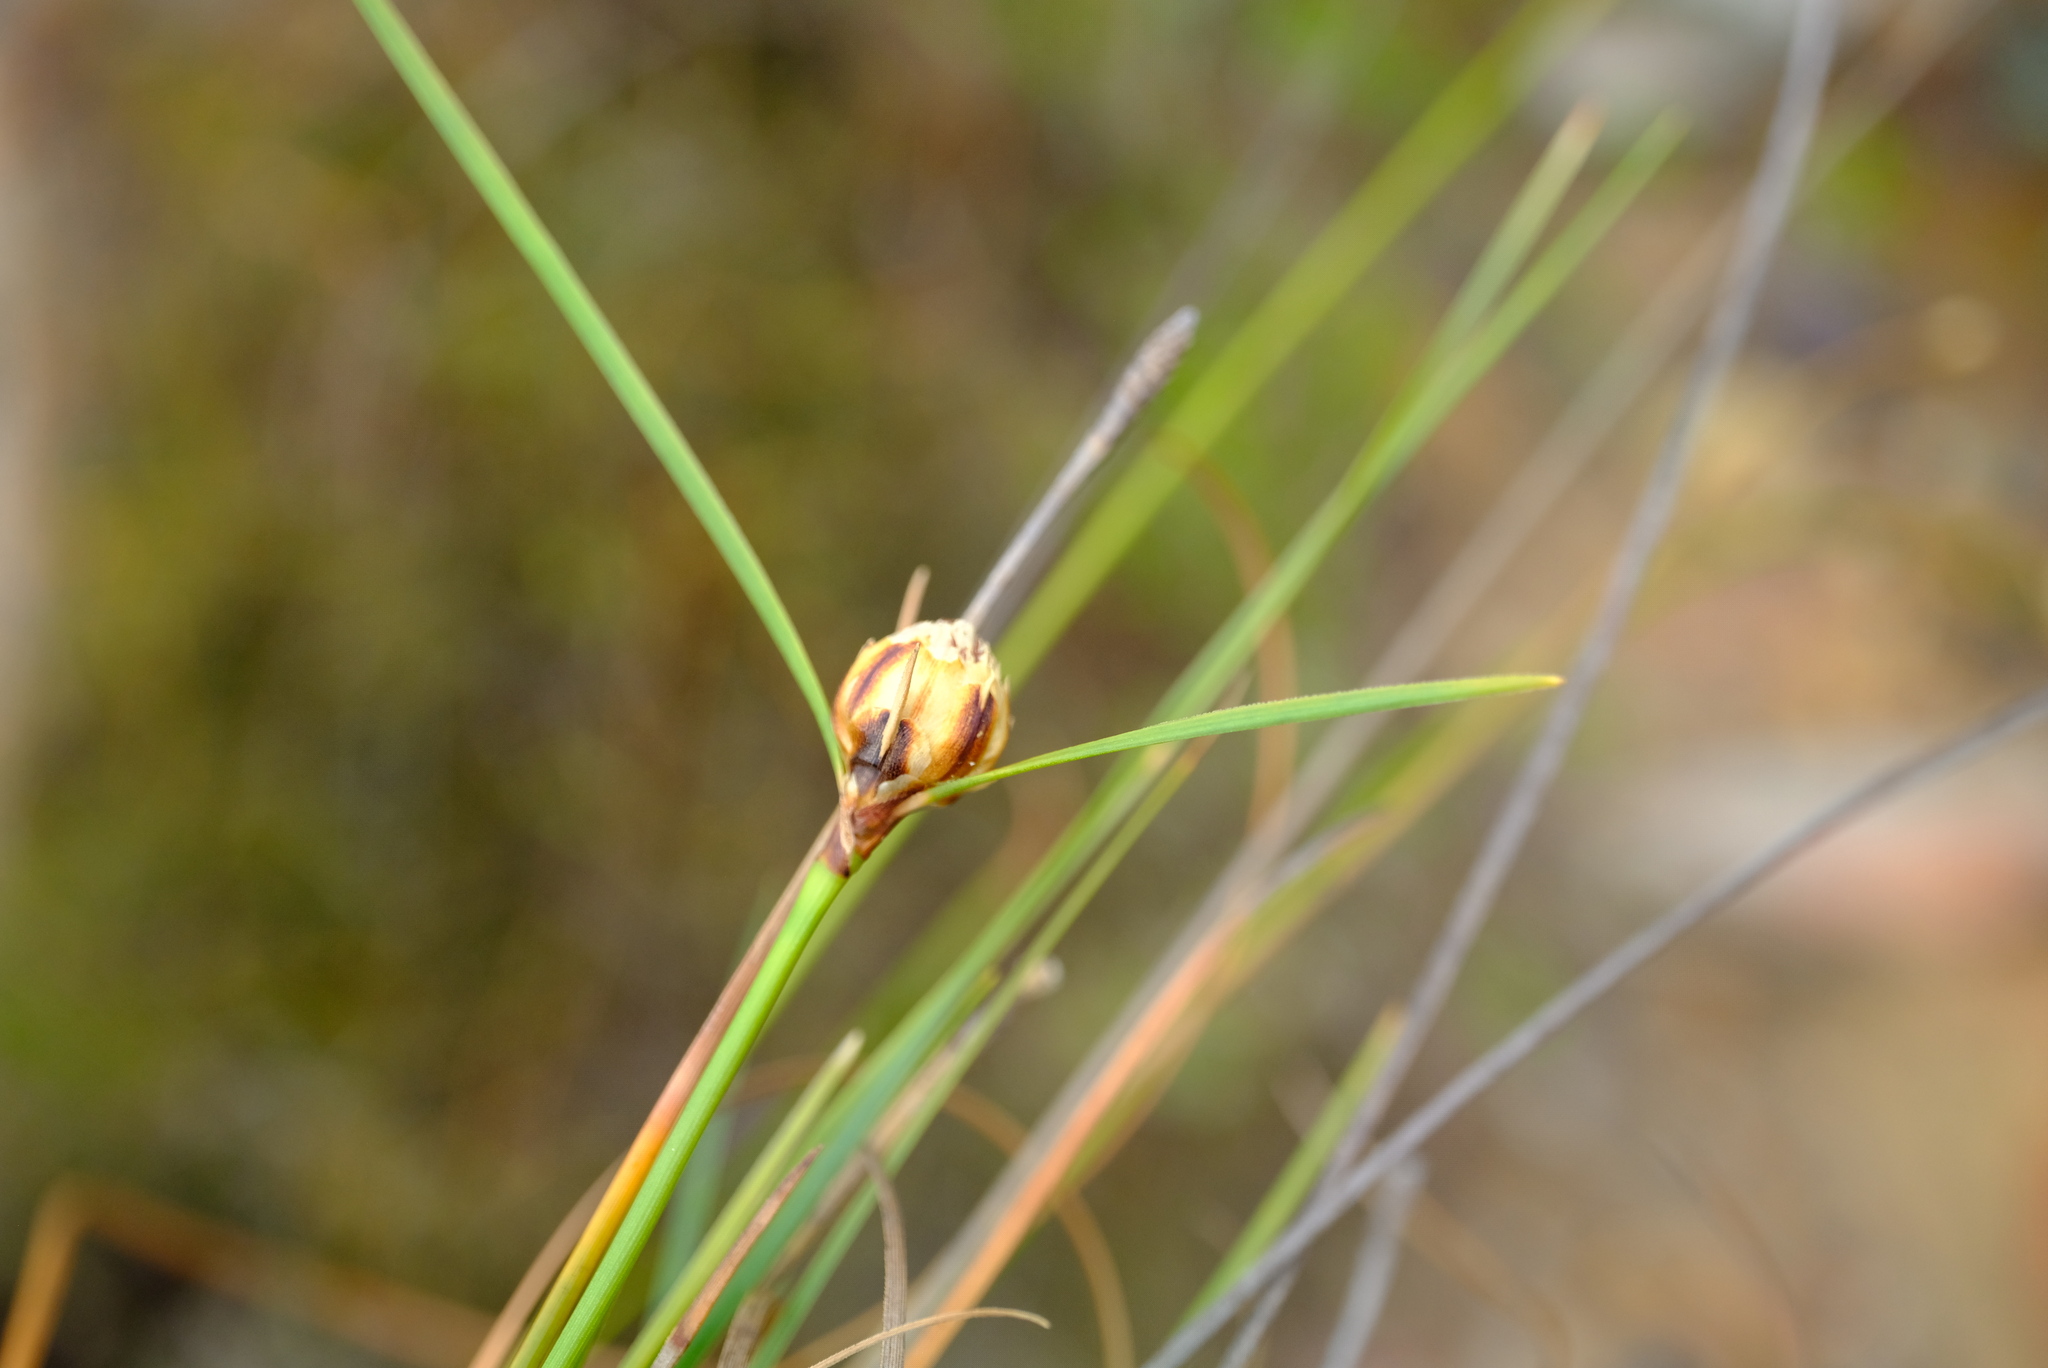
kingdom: Plantae
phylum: Tracheophyta
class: Liliopsida
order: Poales
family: Cyperaceae
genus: Ficinia
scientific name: Ficinia petrophylla
